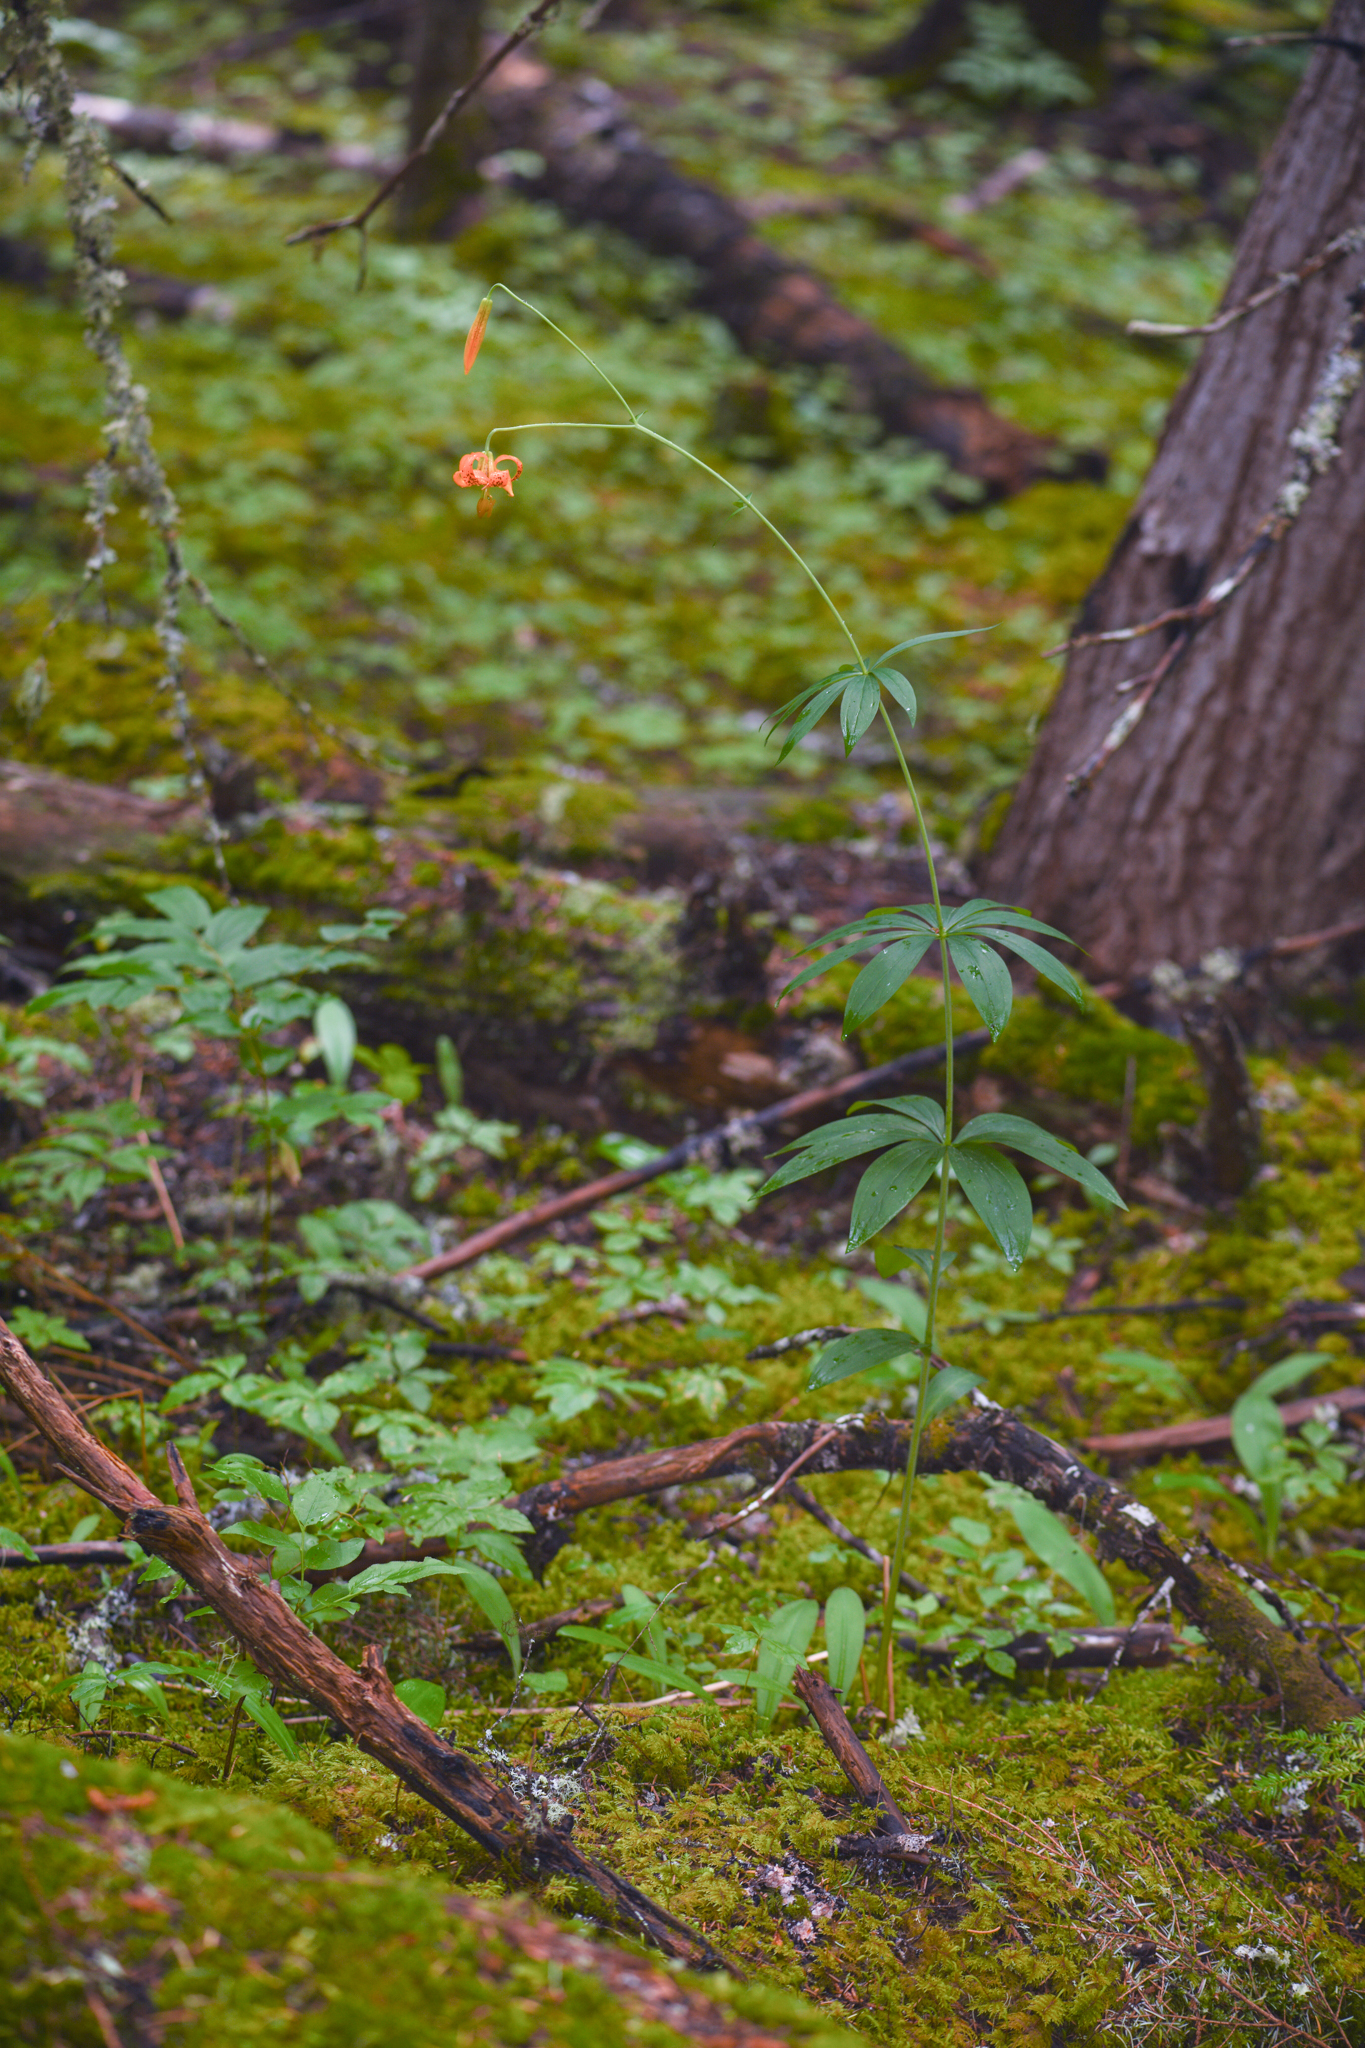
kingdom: Plantae
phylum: Tracheophyta
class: Liliopsida
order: Liliales
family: Liliaceae
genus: Lilium
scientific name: Lilium columbianum
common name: Columbia lily
